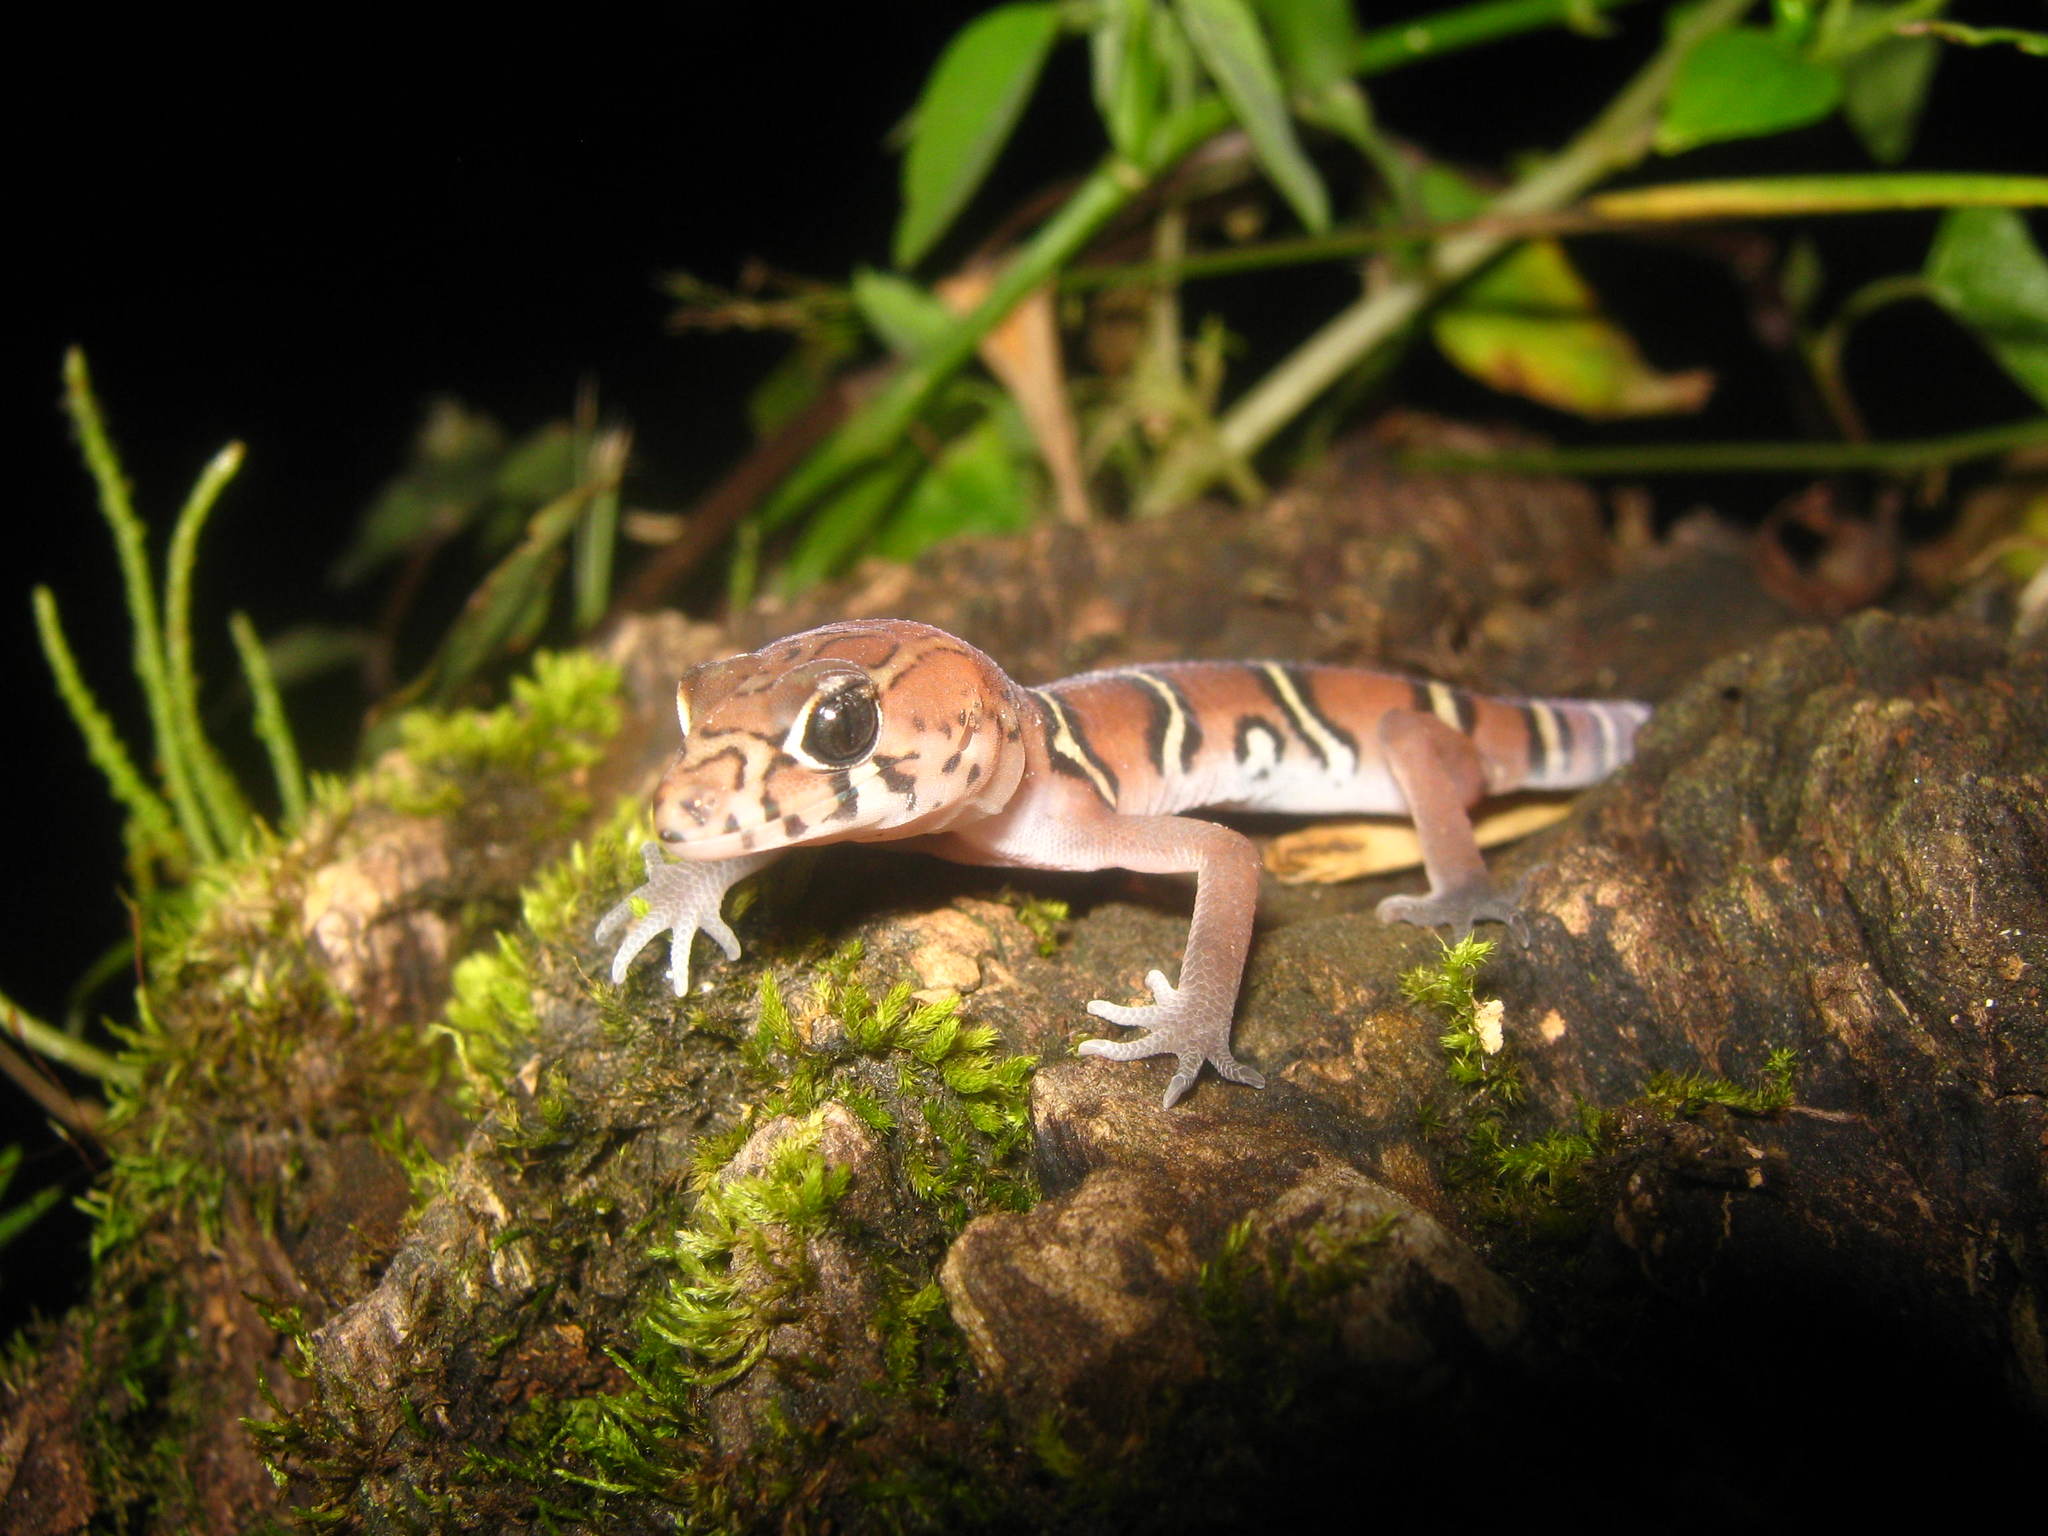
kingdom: Animalia
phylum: Chordata
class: Squamata
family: Eublepharidae
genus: Coleonyx
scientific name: Coleonyx elegans
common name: Yucatan banded gecko
